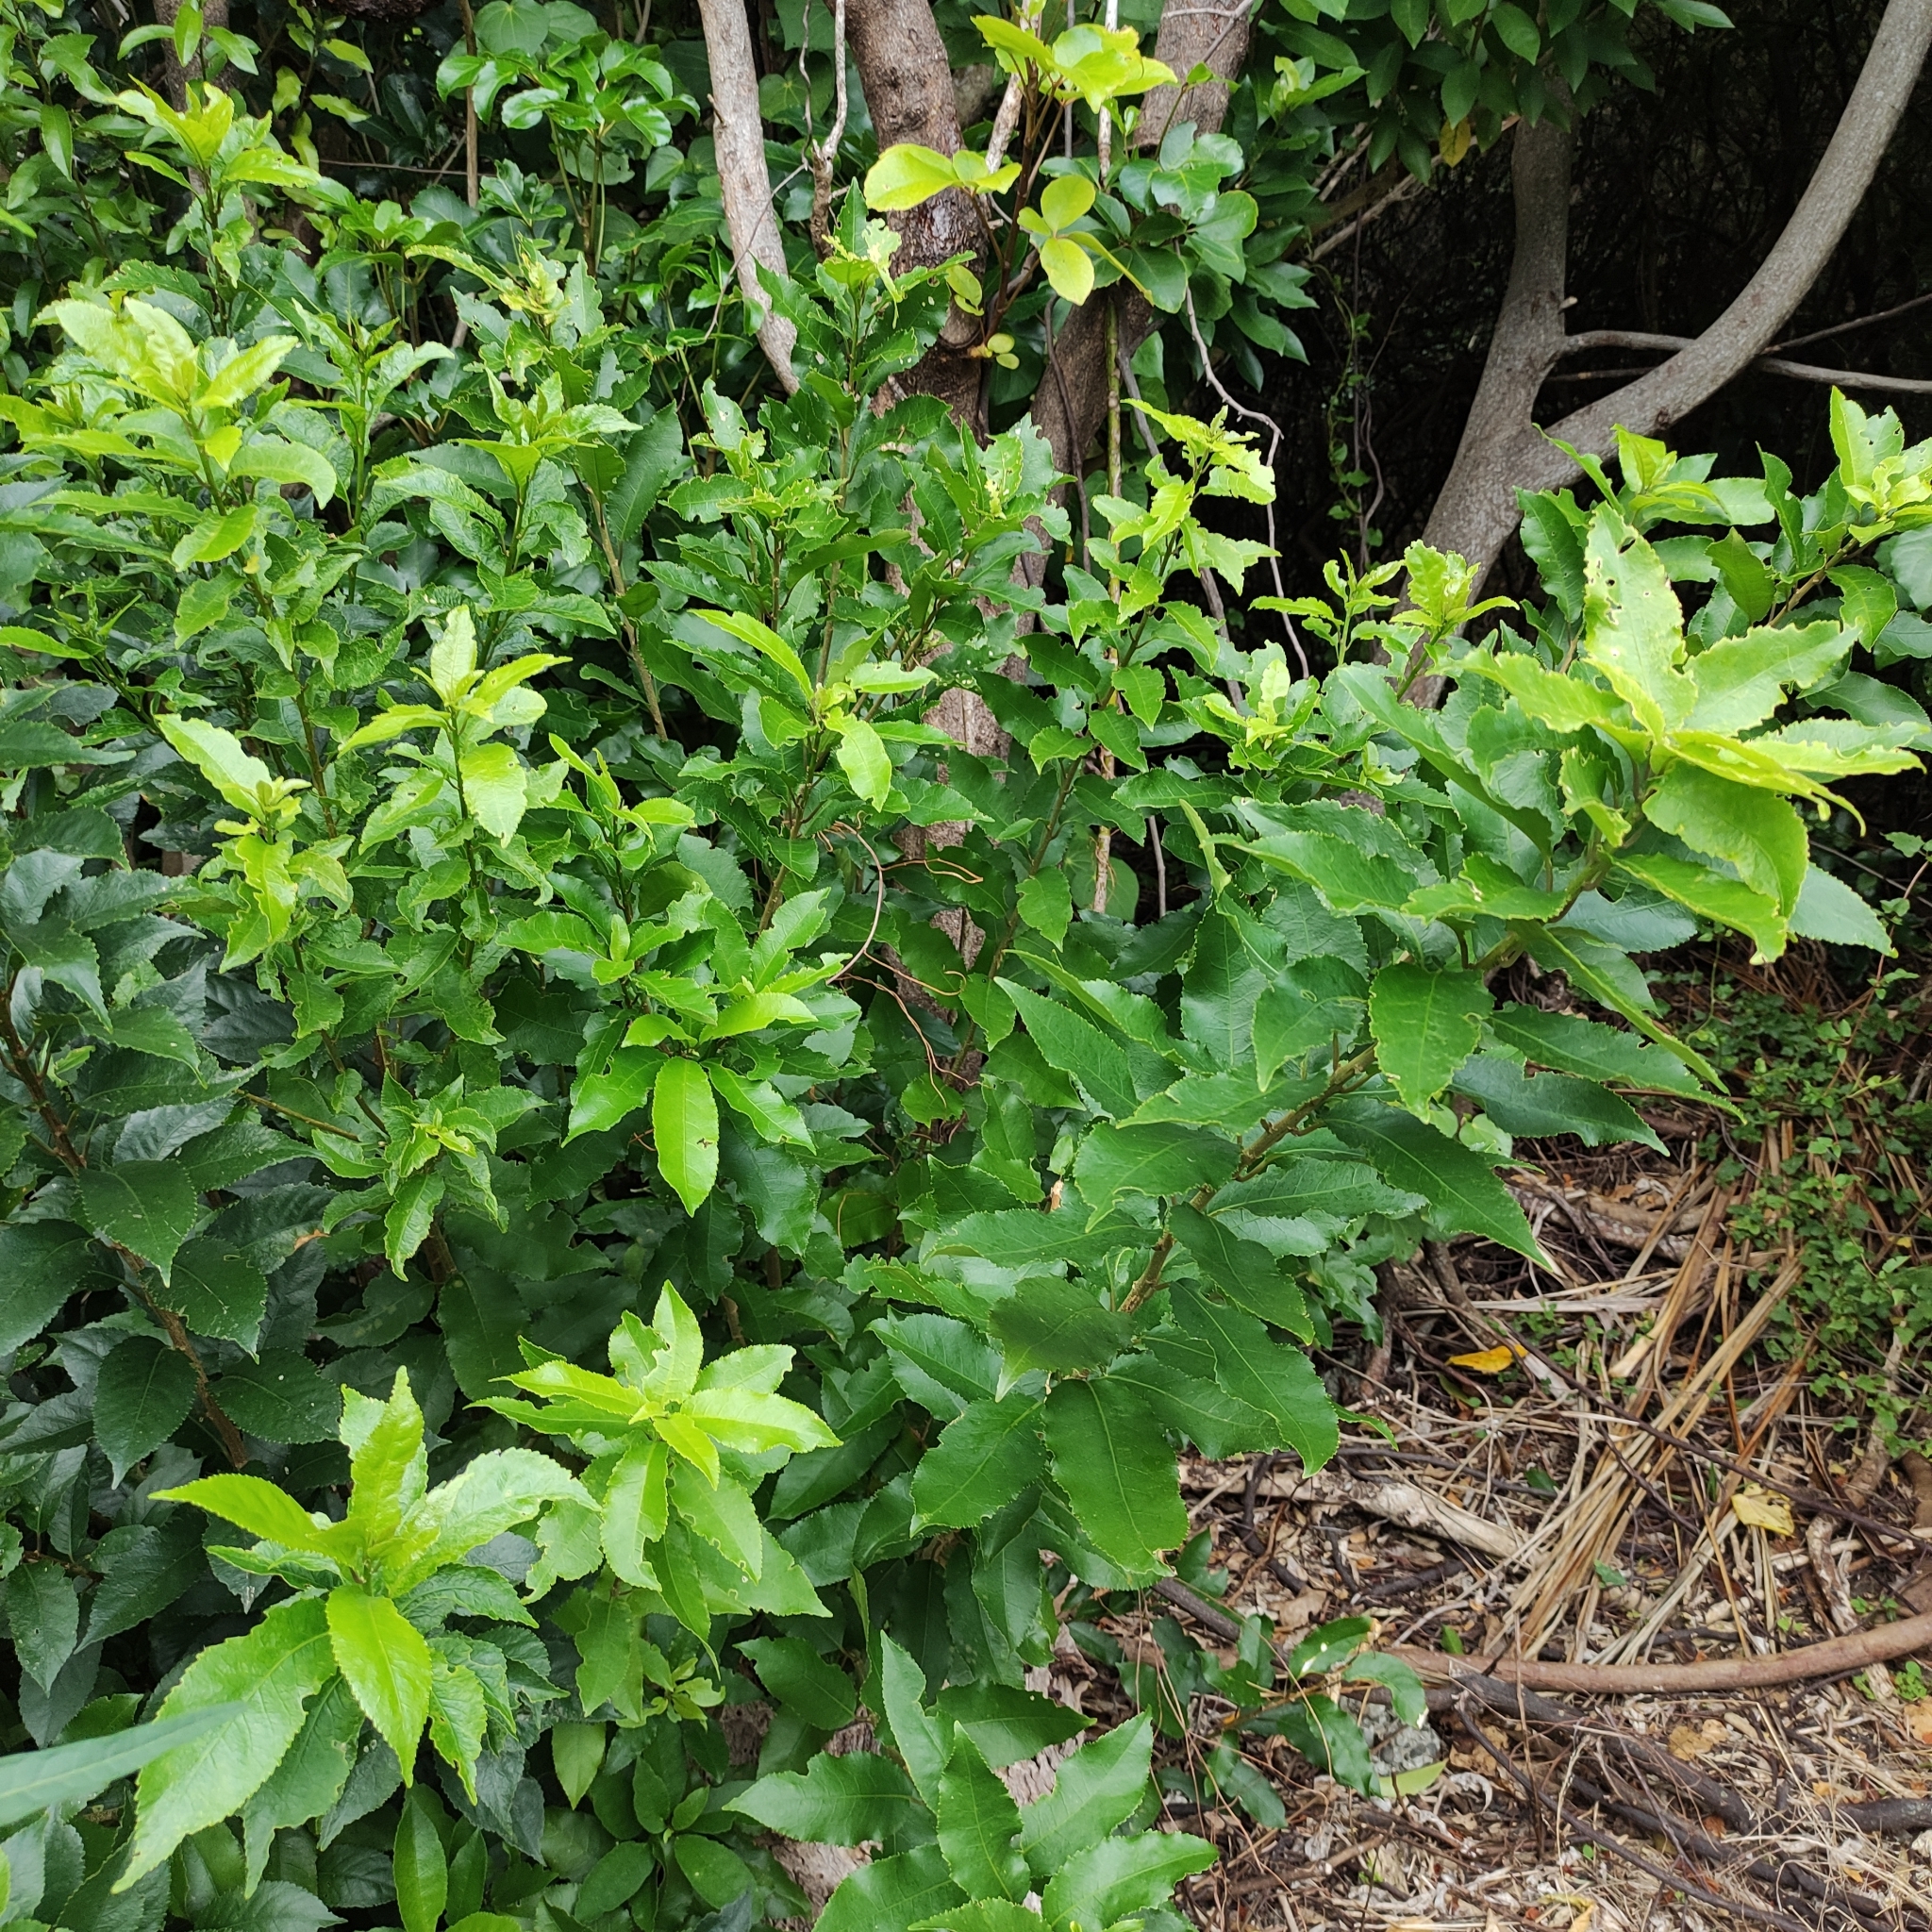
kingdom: Plantae
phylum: Tracheophyta
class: Magnoliopsida
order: Malpighiales
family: Violaceae
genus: Melicytus
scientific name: Melicytus ramiflorus
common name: Mahoe
